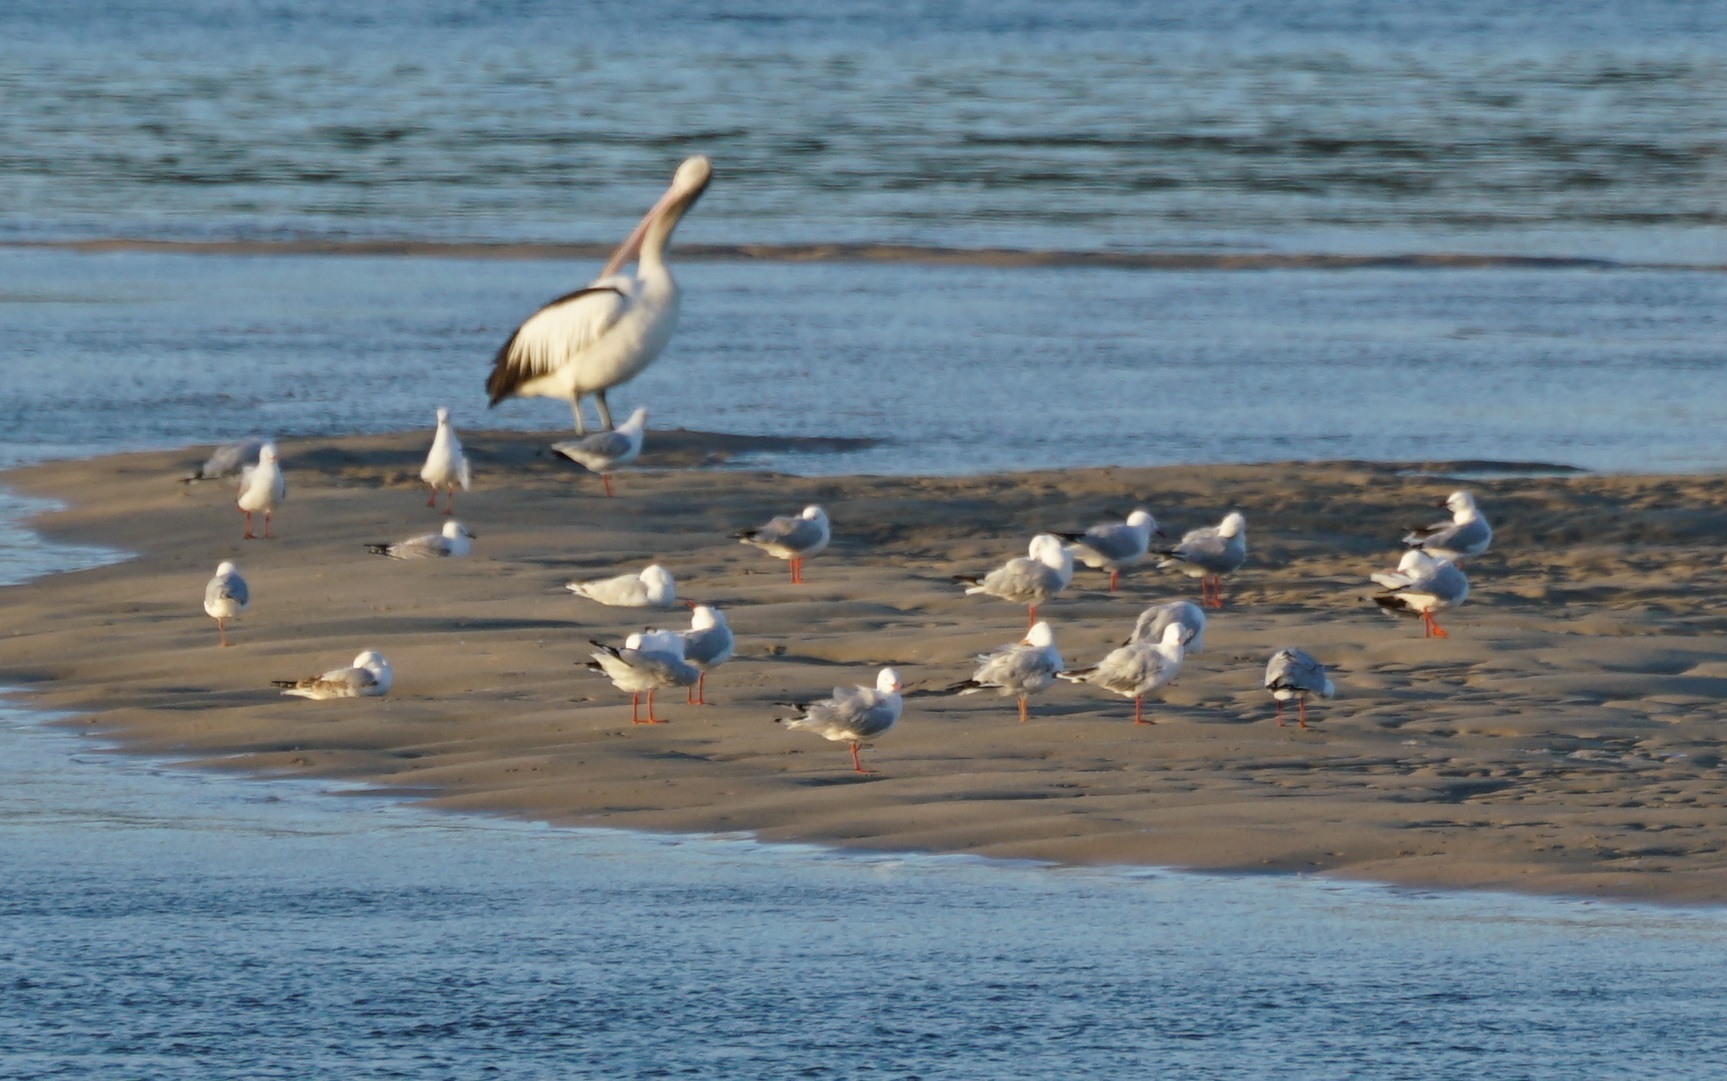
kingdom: Animalia
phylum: Chordata
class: Aves
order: Charadriiformes
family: Laridae
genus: Chroicocephalus
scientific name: Chroicocephalus novaehollandiae
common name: Silver gull
